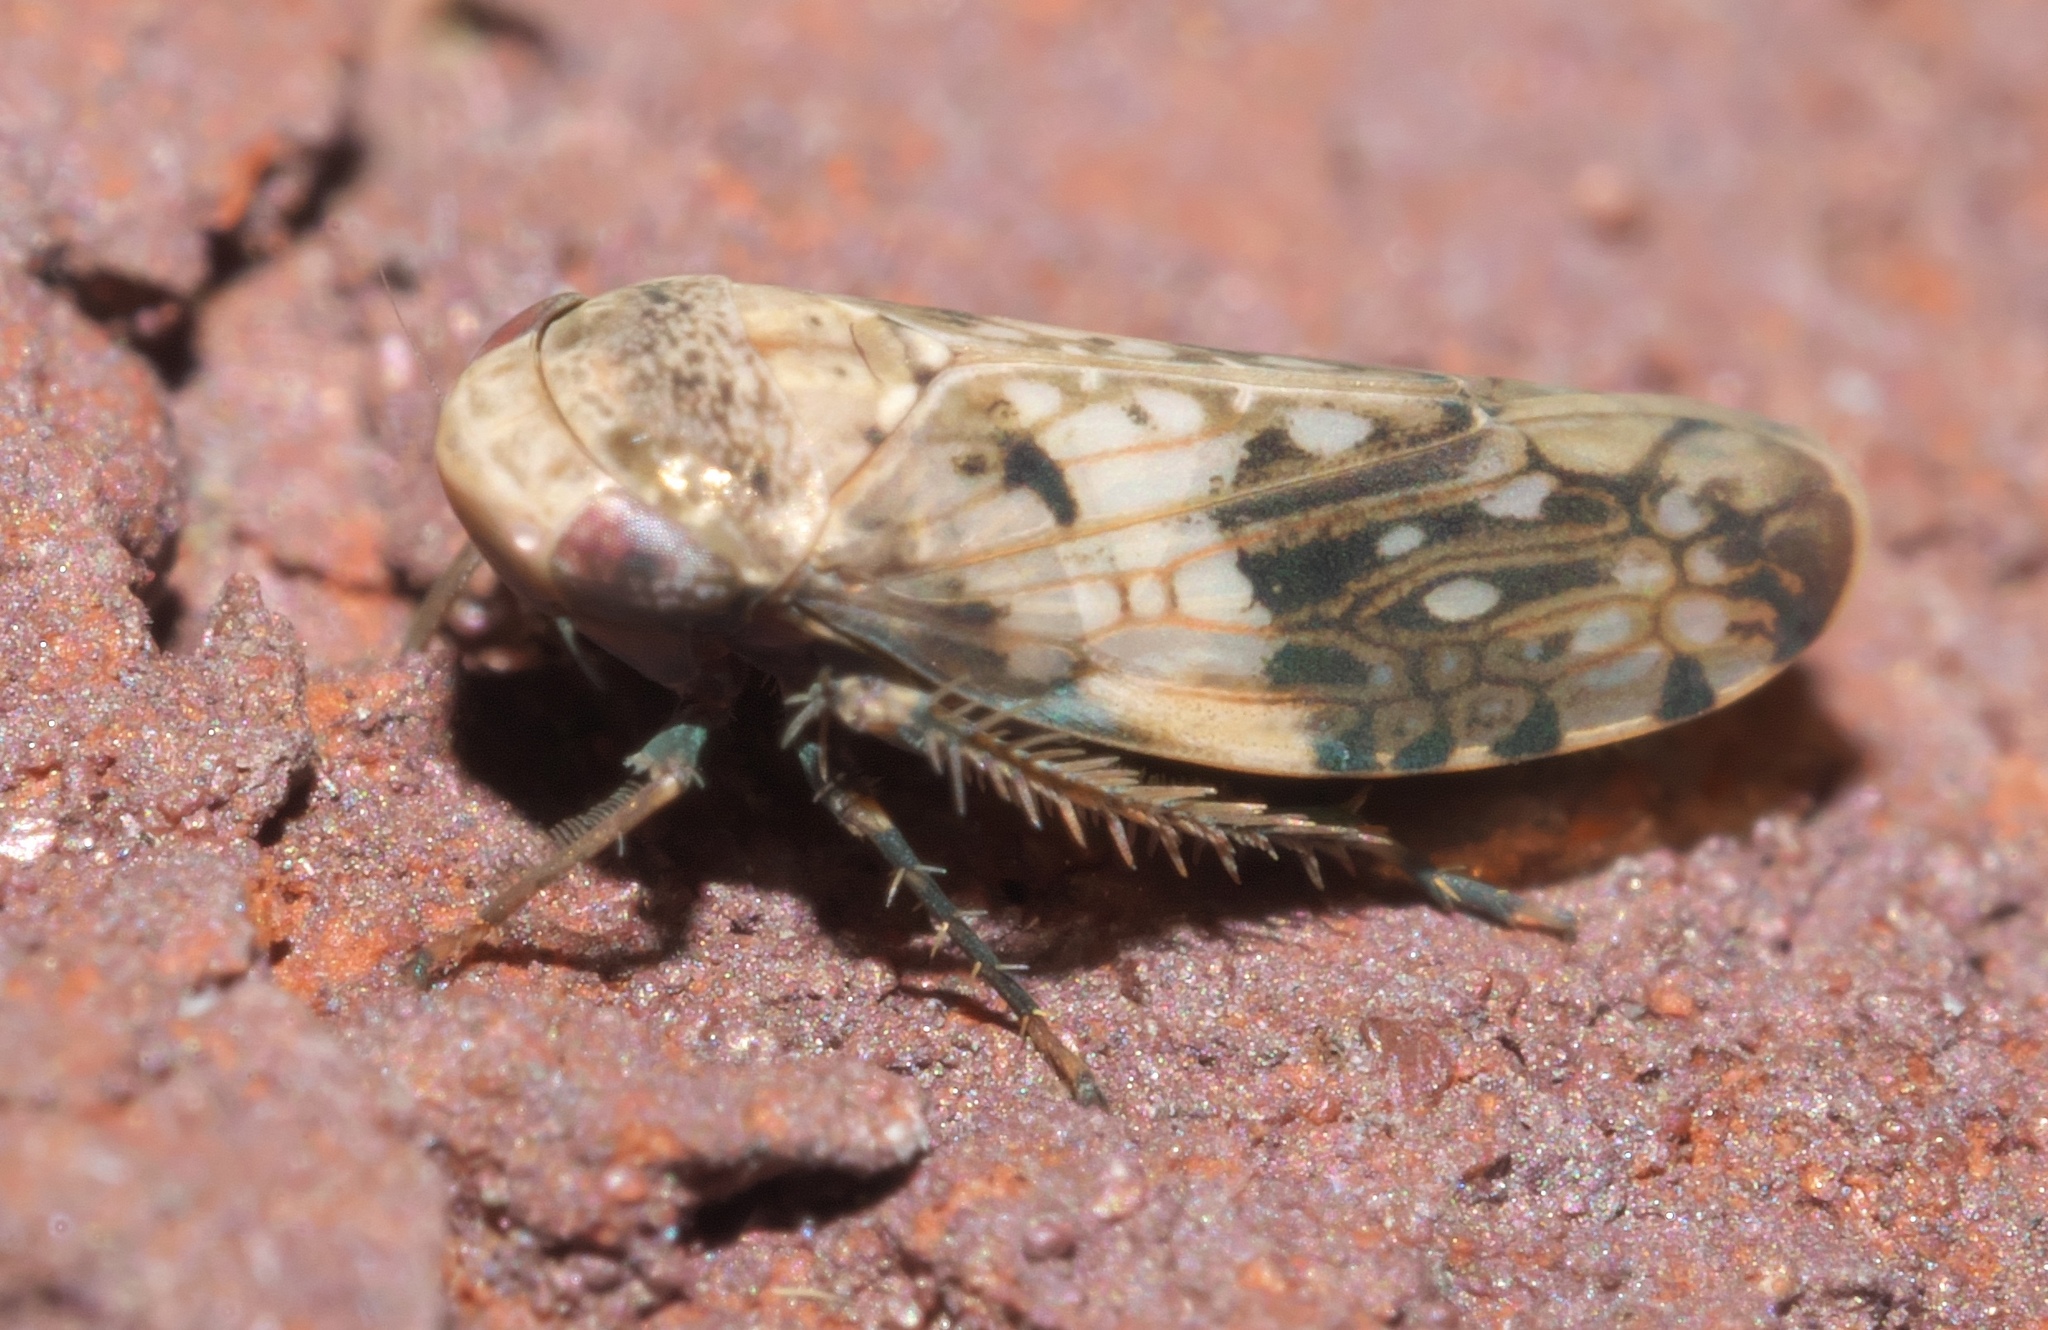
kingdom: Animalia
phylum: Arthropoda
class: Insecta
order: Hemiptera
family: Cicadellidae
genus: Menosoma
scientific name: Menosoma cinctum
